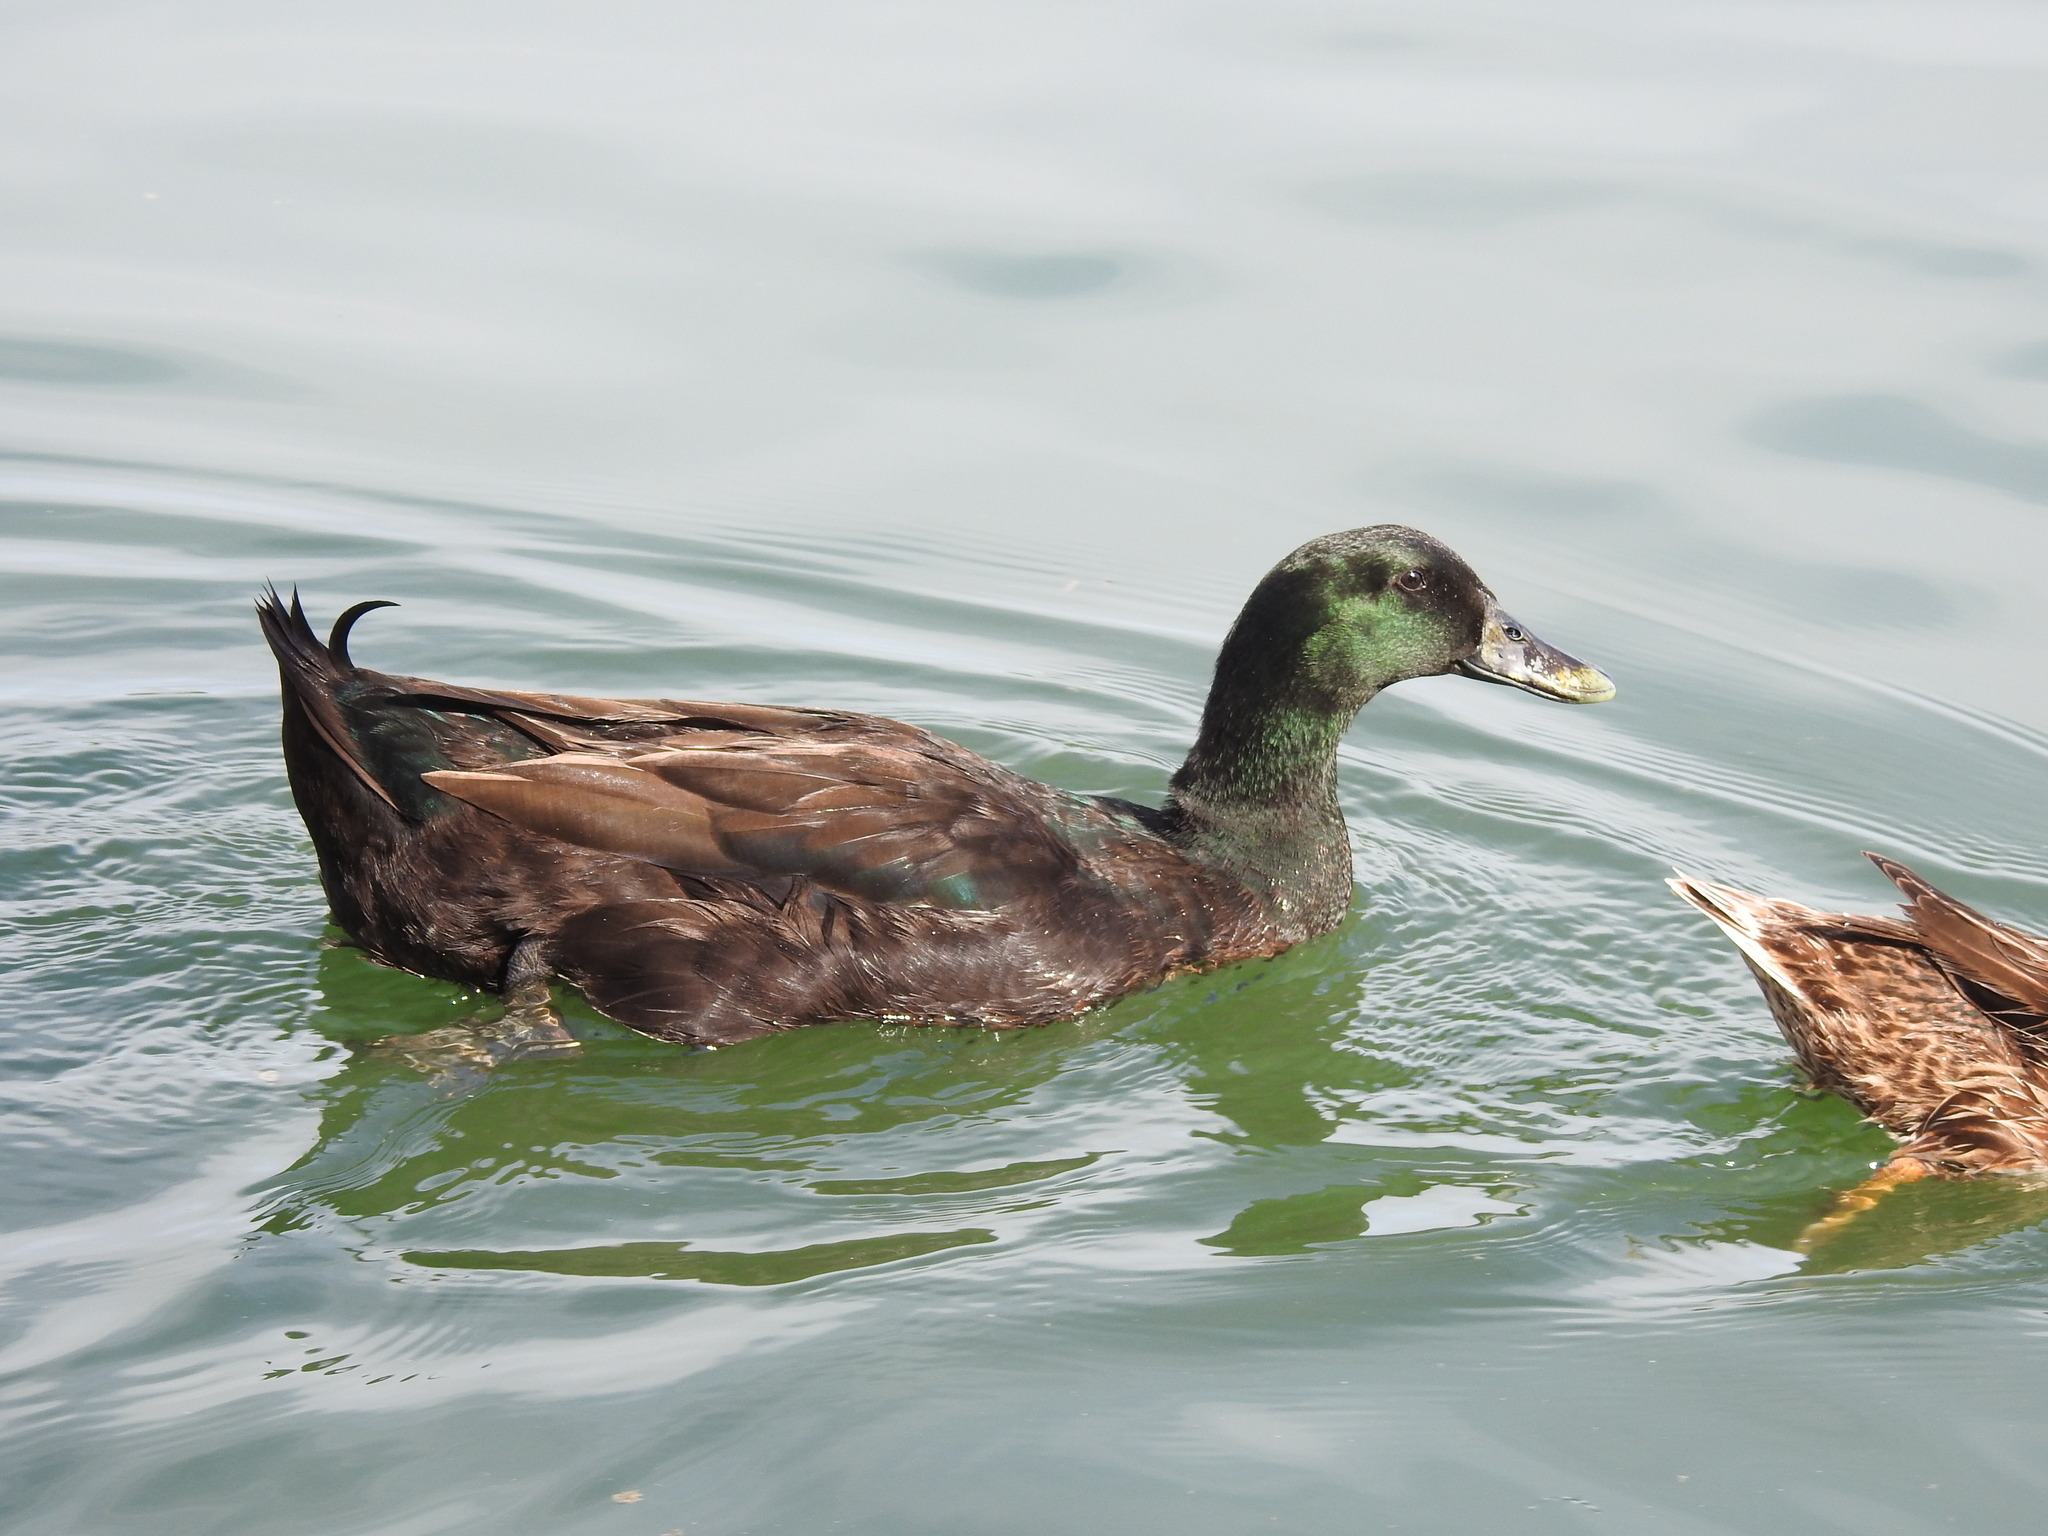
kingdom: Animalia
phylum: Chordata
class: Aves
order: Anseriformes
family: Anatidae
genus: Anas
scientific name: Anas platyrhynchos
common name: Mallard
